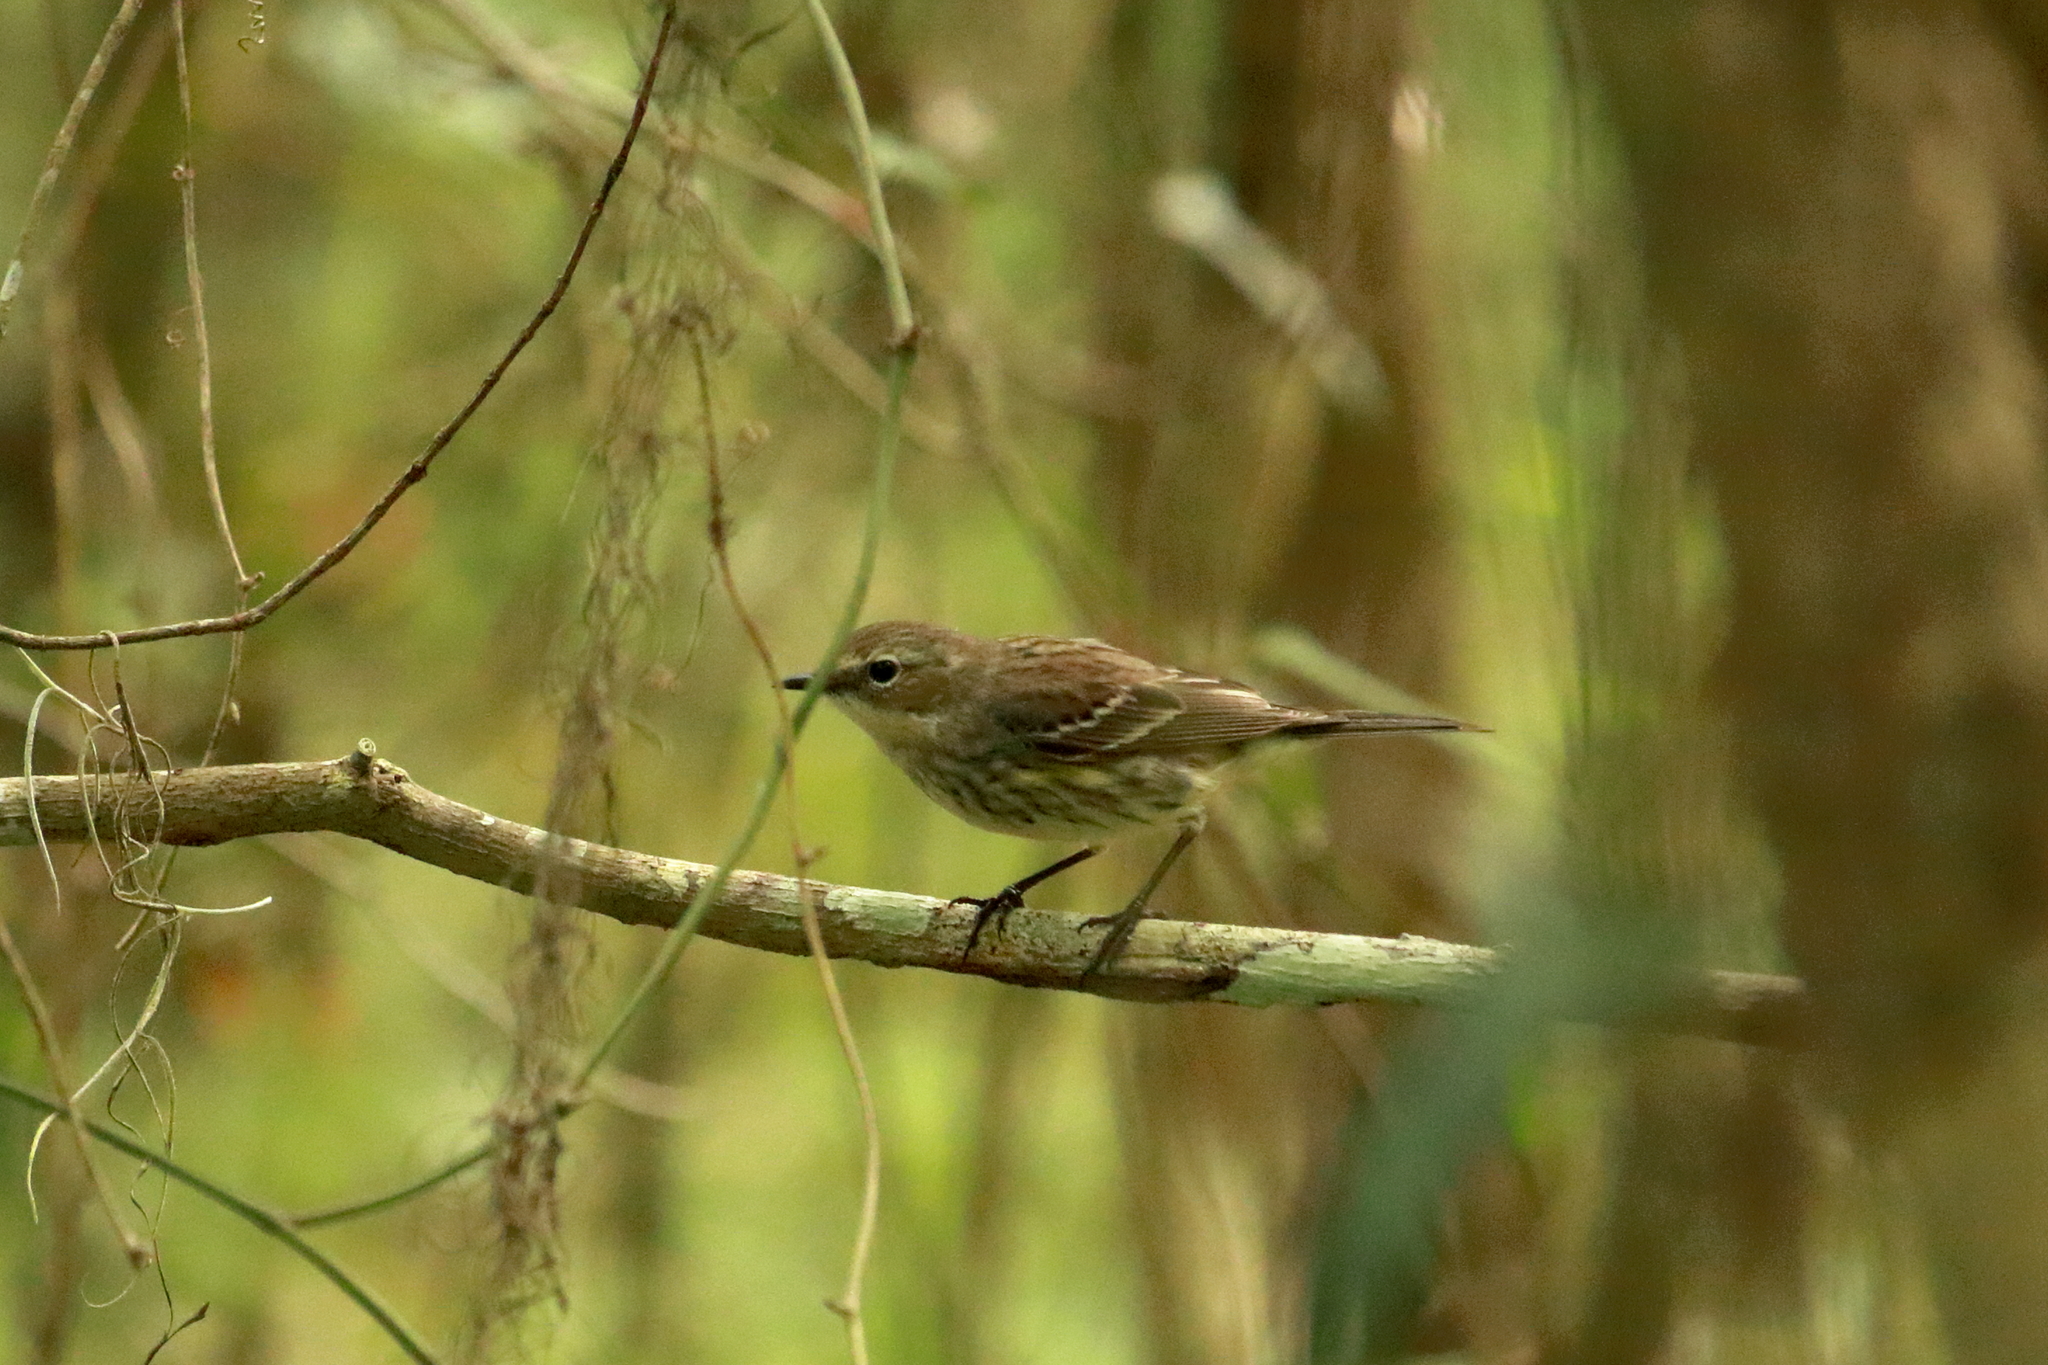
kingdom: Animalia
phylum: Chordata
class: Aves
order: Passeriformes
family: Parulidae
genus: Setophaga
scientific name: Setophaga coronata
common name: Myrtle warbler
